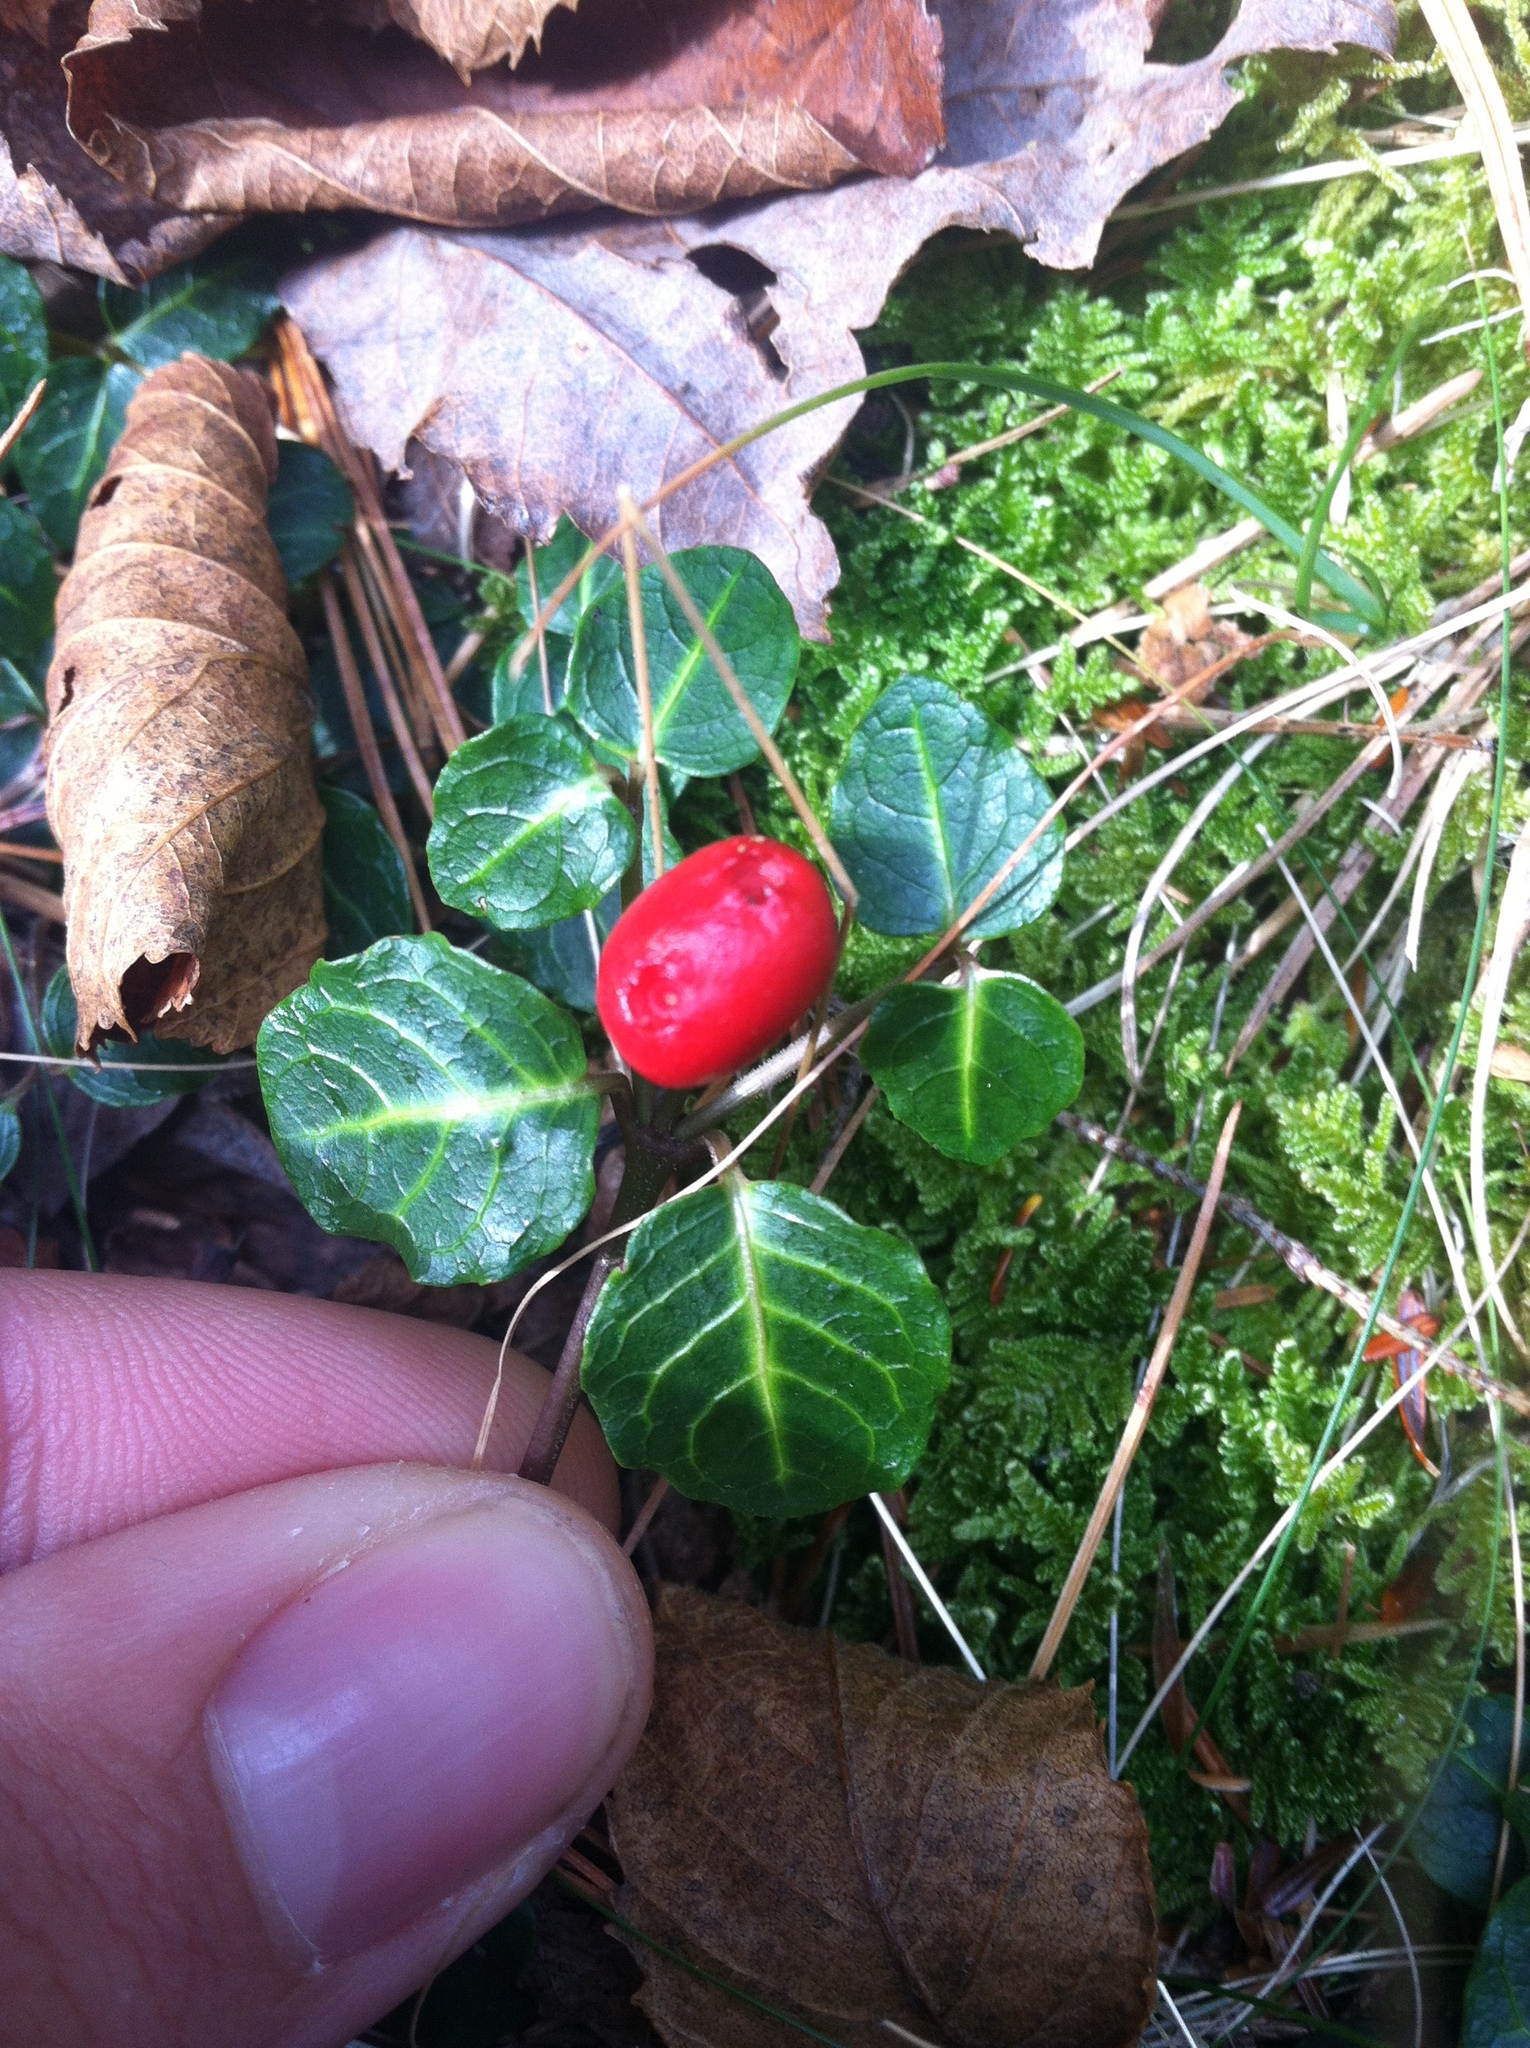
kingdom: Plantae
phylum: Tracheophyta
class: Magnoliopsida
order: Gentianales
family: Rubiaceae
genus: Mitchella
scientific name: Mitchella repens
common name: Partridge-berry
